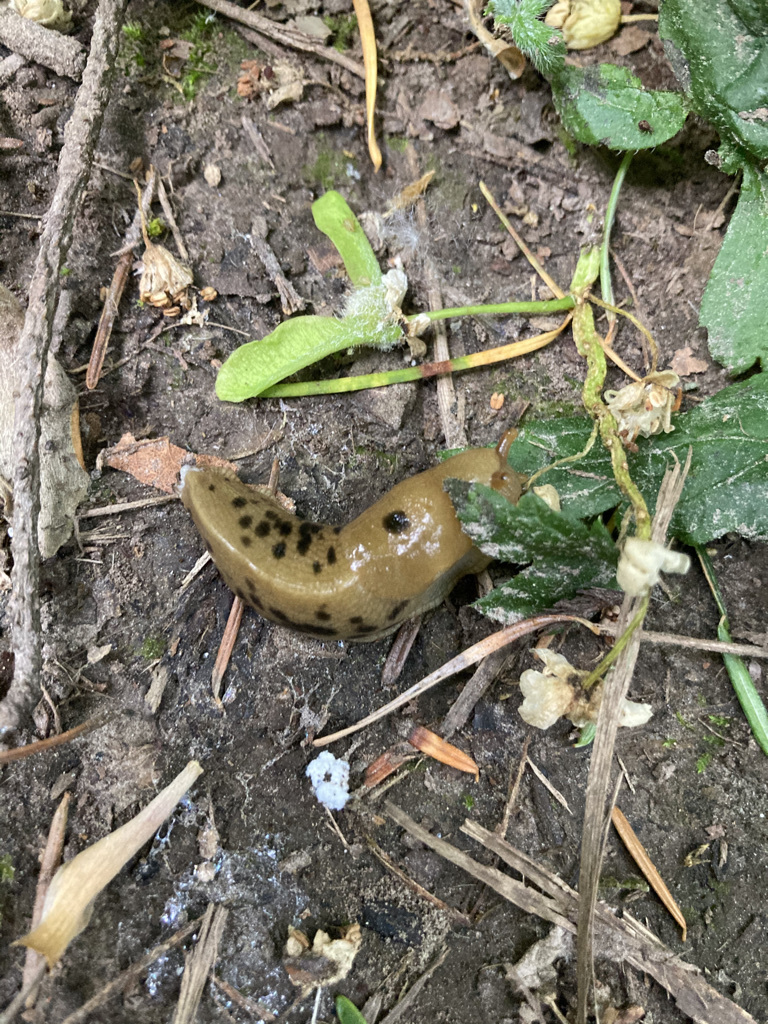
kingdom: Animalia
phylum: Mollusca
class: Gastropoda
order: Stylommatophora
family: Ariolimacidae
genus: Ariolimax
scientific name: Ariolimax columbianus
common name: Pacific banana slug
